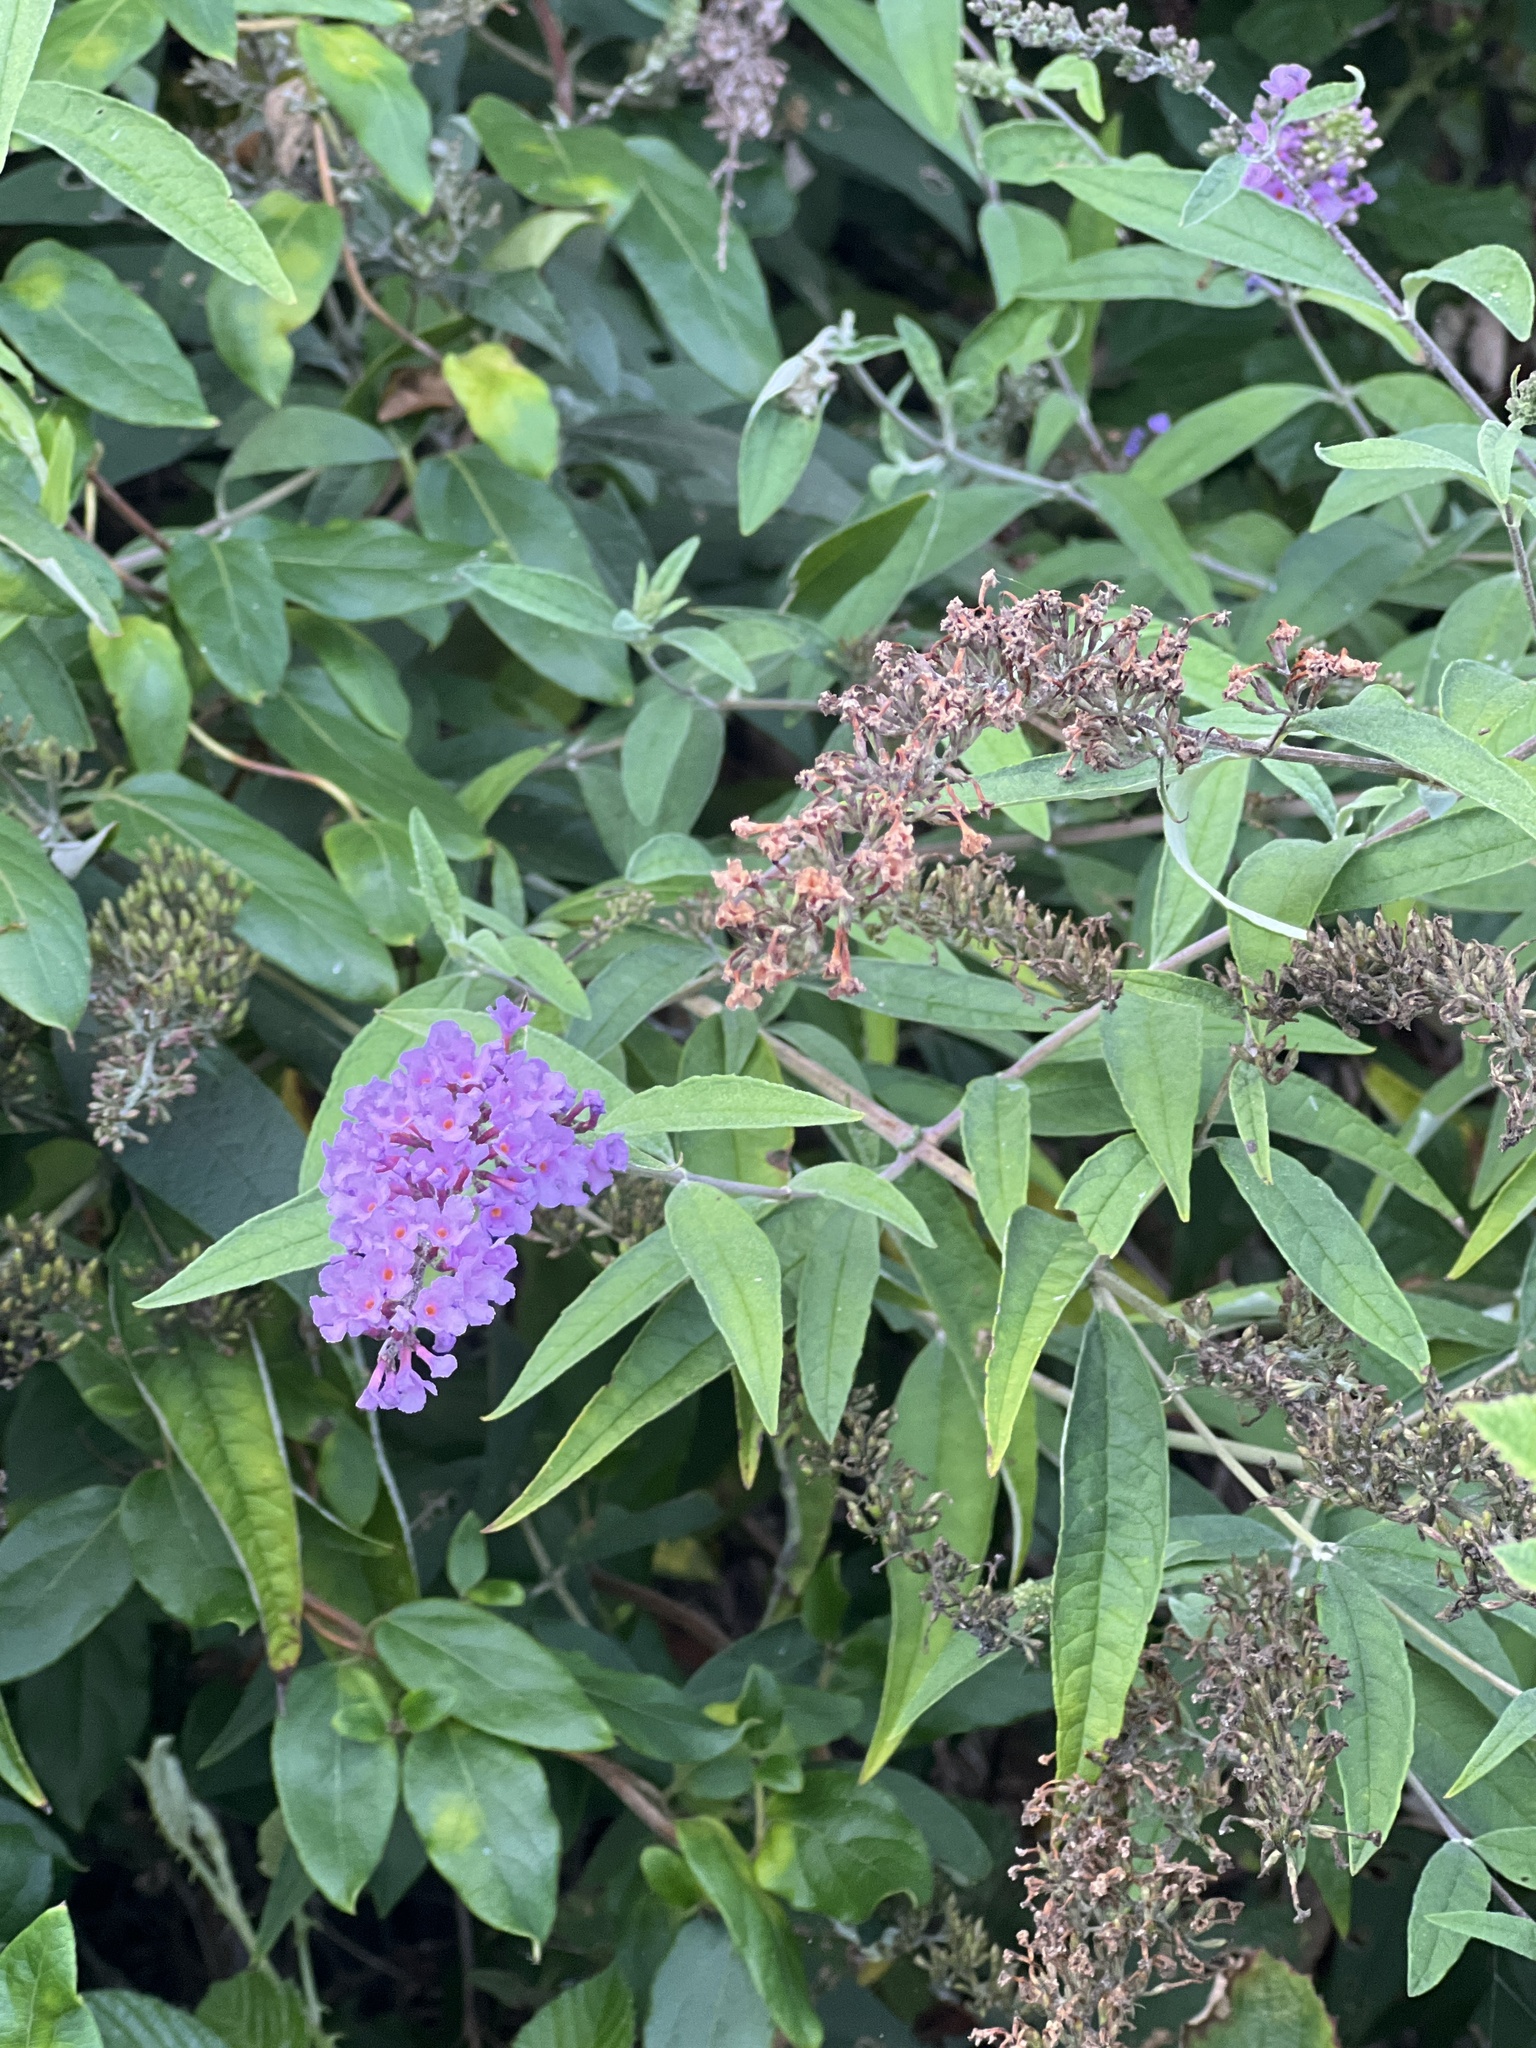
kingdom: Plantae
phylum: Tracheophyta
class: Magnoliopsida
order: Lamiales
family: Scrophulariaceae
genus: Buddleja
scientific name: Buddleja davidii
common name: Butterfly-bush
